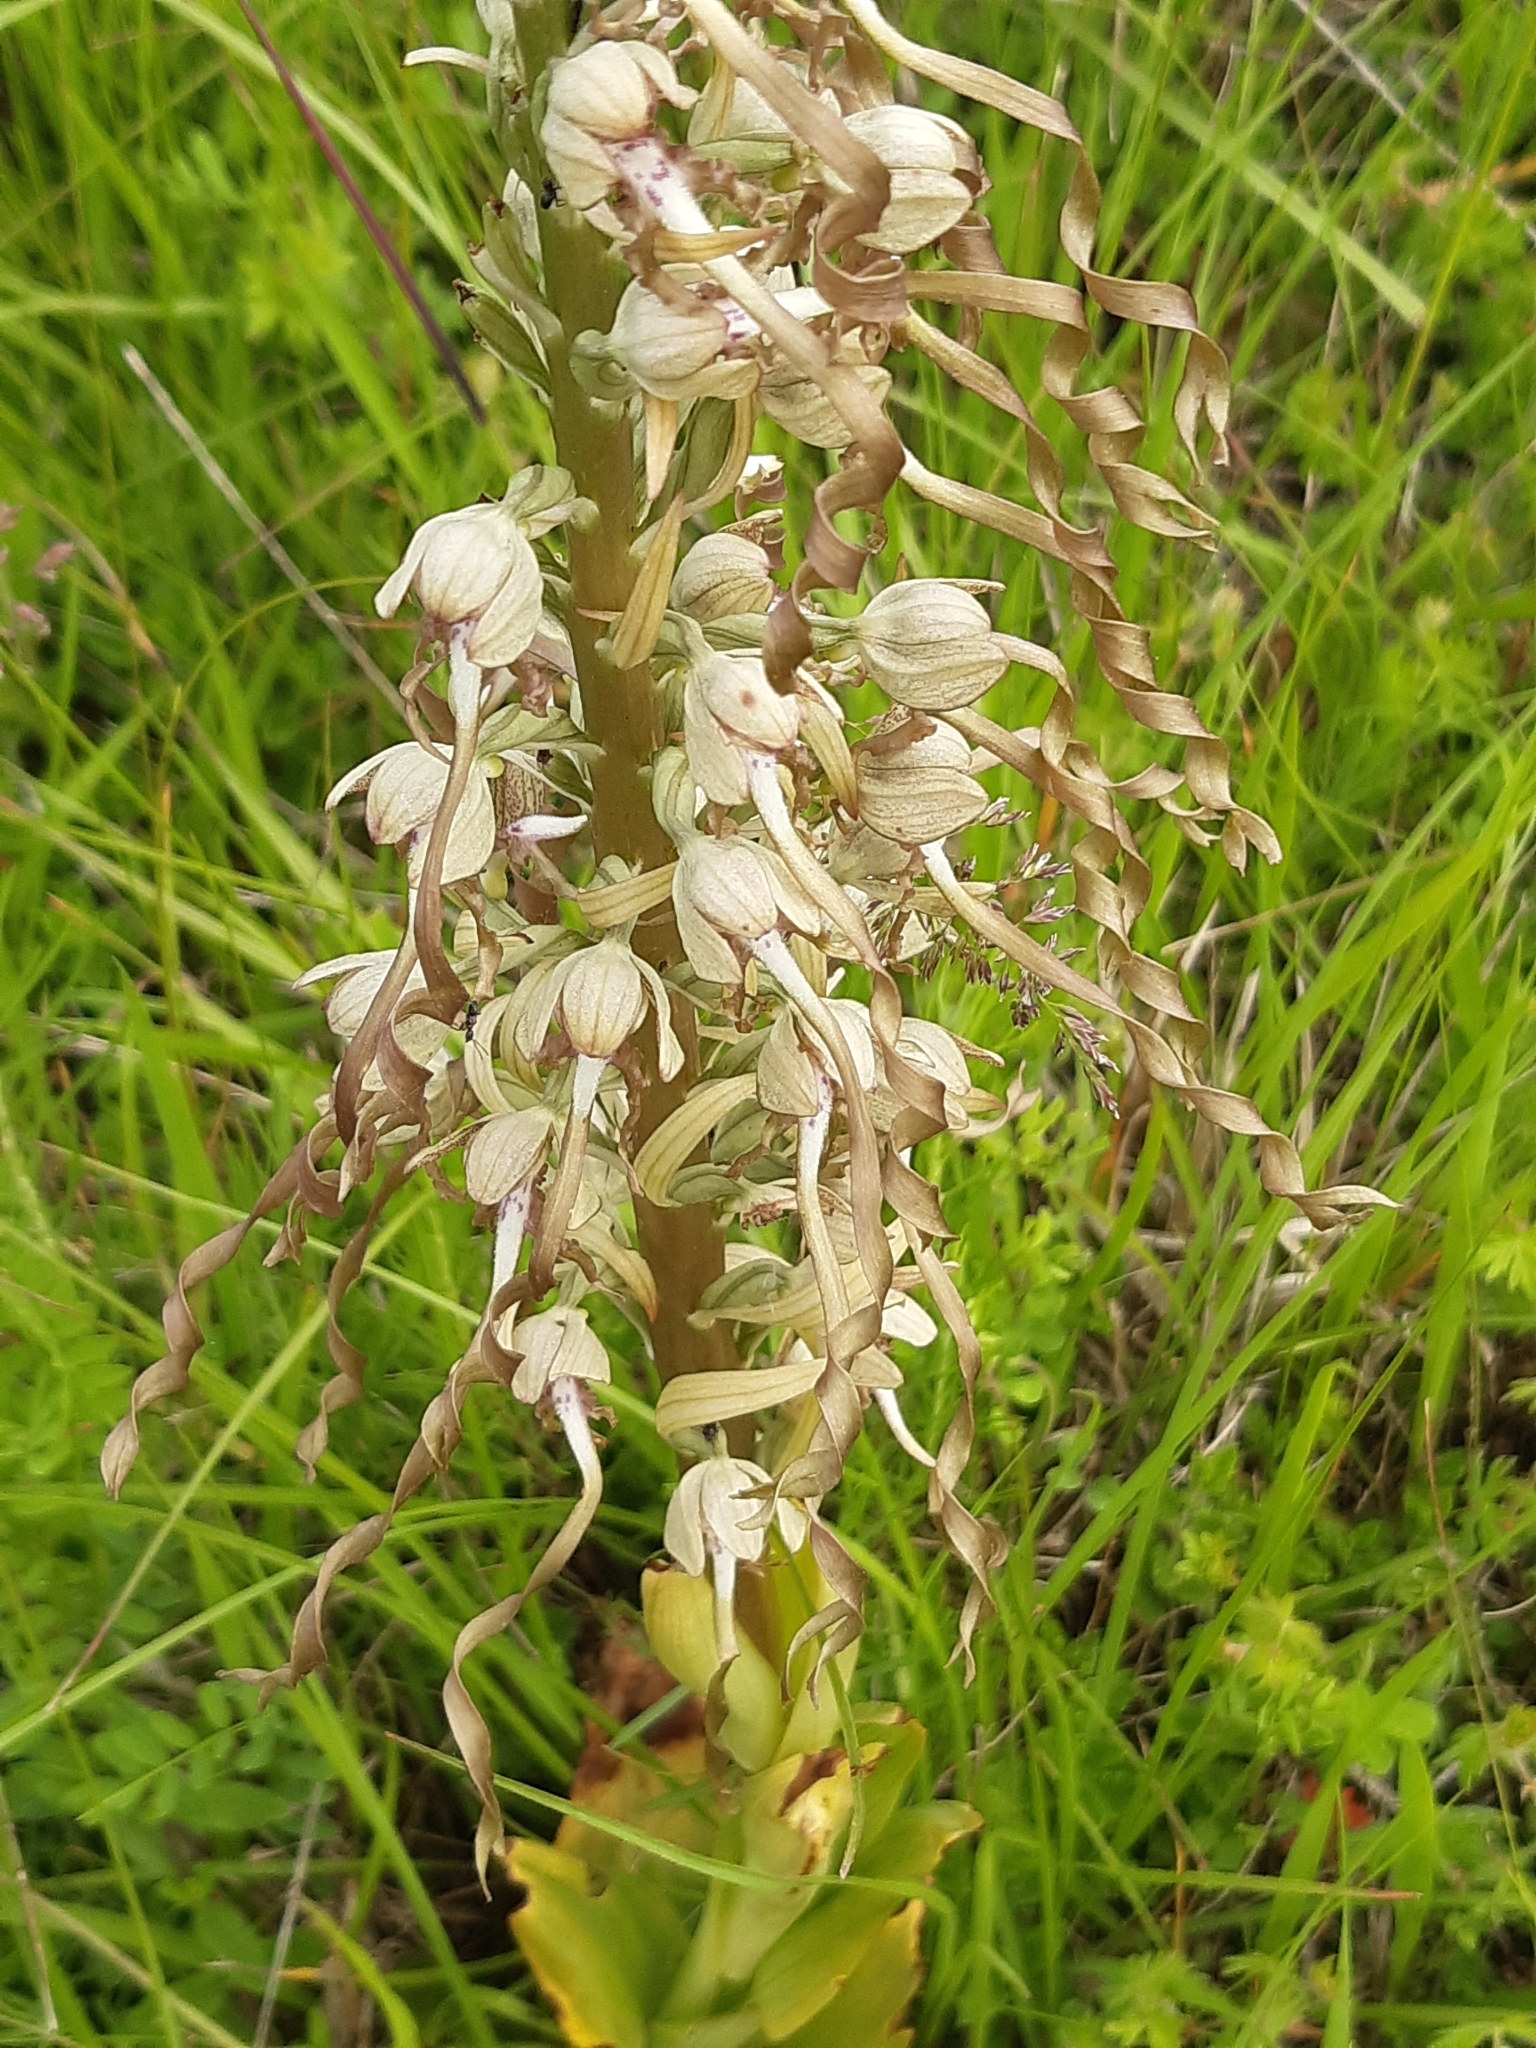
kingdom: Plantae
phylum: Tracheophyta
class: Liliopsida
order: Asparagales
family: Orchidaceae
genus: Himantoglossum
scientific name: Himantoglossum hircinum
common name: Lizard orchid
